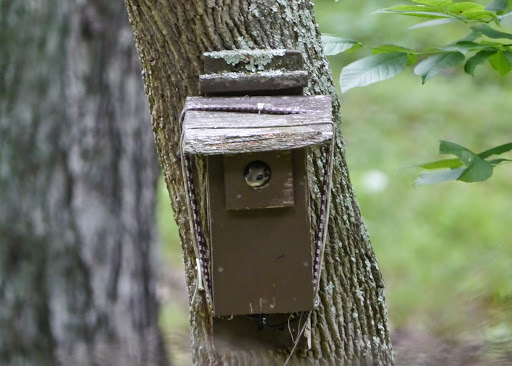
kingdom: Animalia
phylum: Chordata
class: Mammalia
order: Rodentia
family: Sciuridae
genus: Glaucomys
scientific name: Glaucomys volans
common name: Southern flying squirrel
